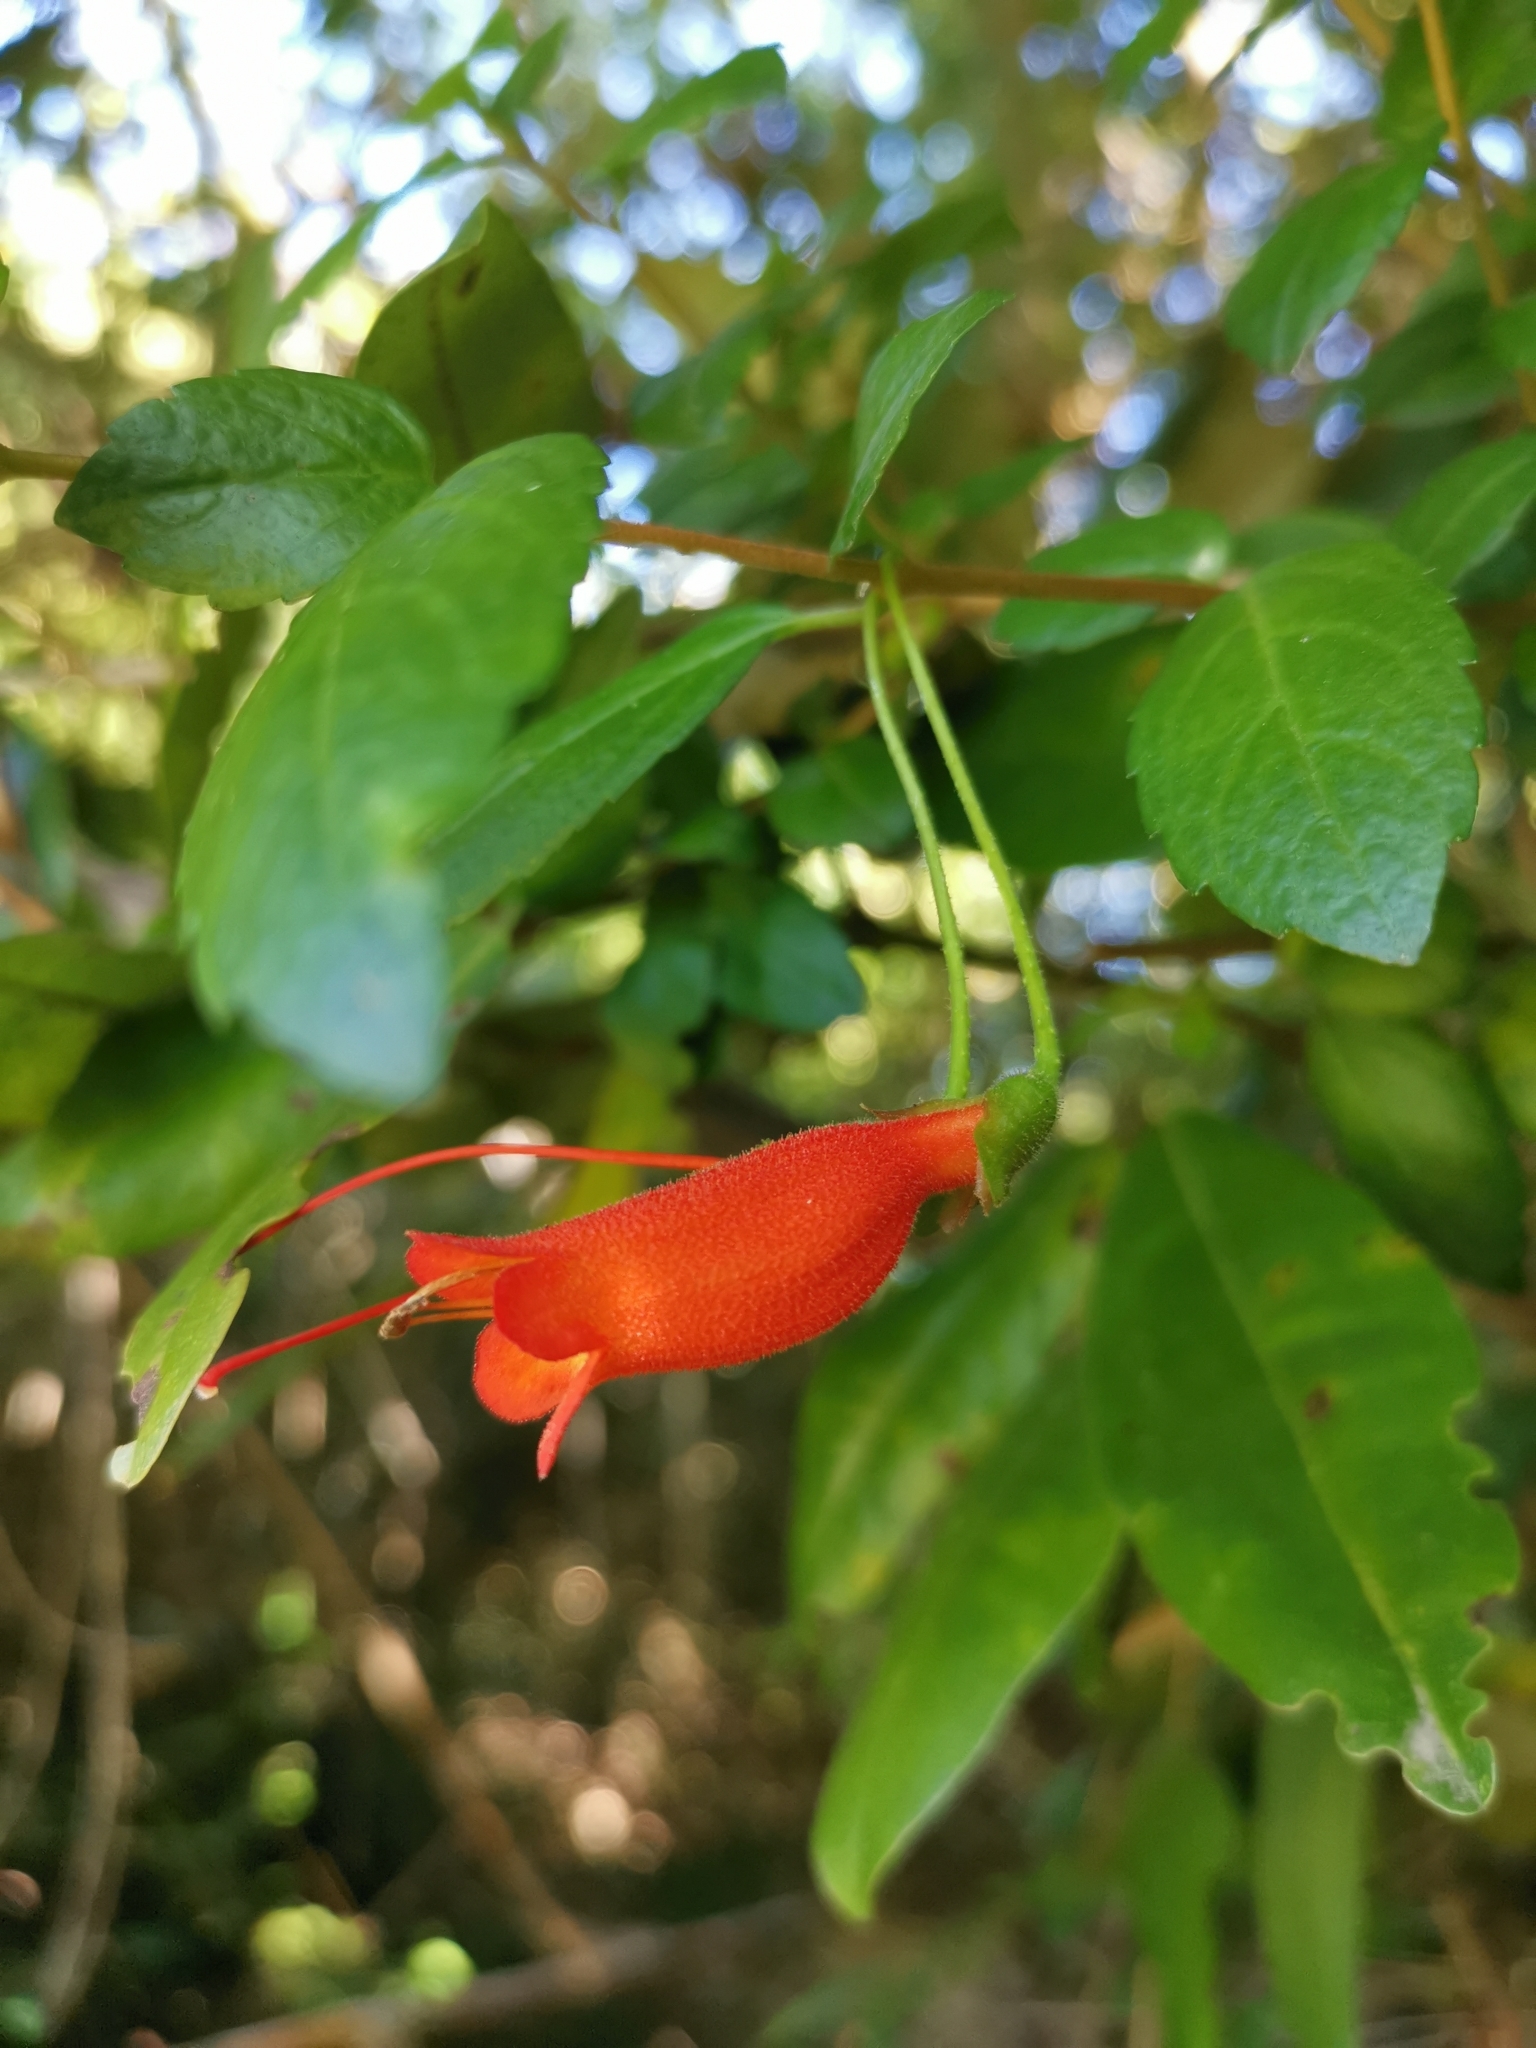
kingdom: Plantae
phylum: Tracheophyta
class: Magnoliopsida
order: Lamiales
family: Gesneriaceae
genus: Mitraria
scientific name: Mitraria coccinea
